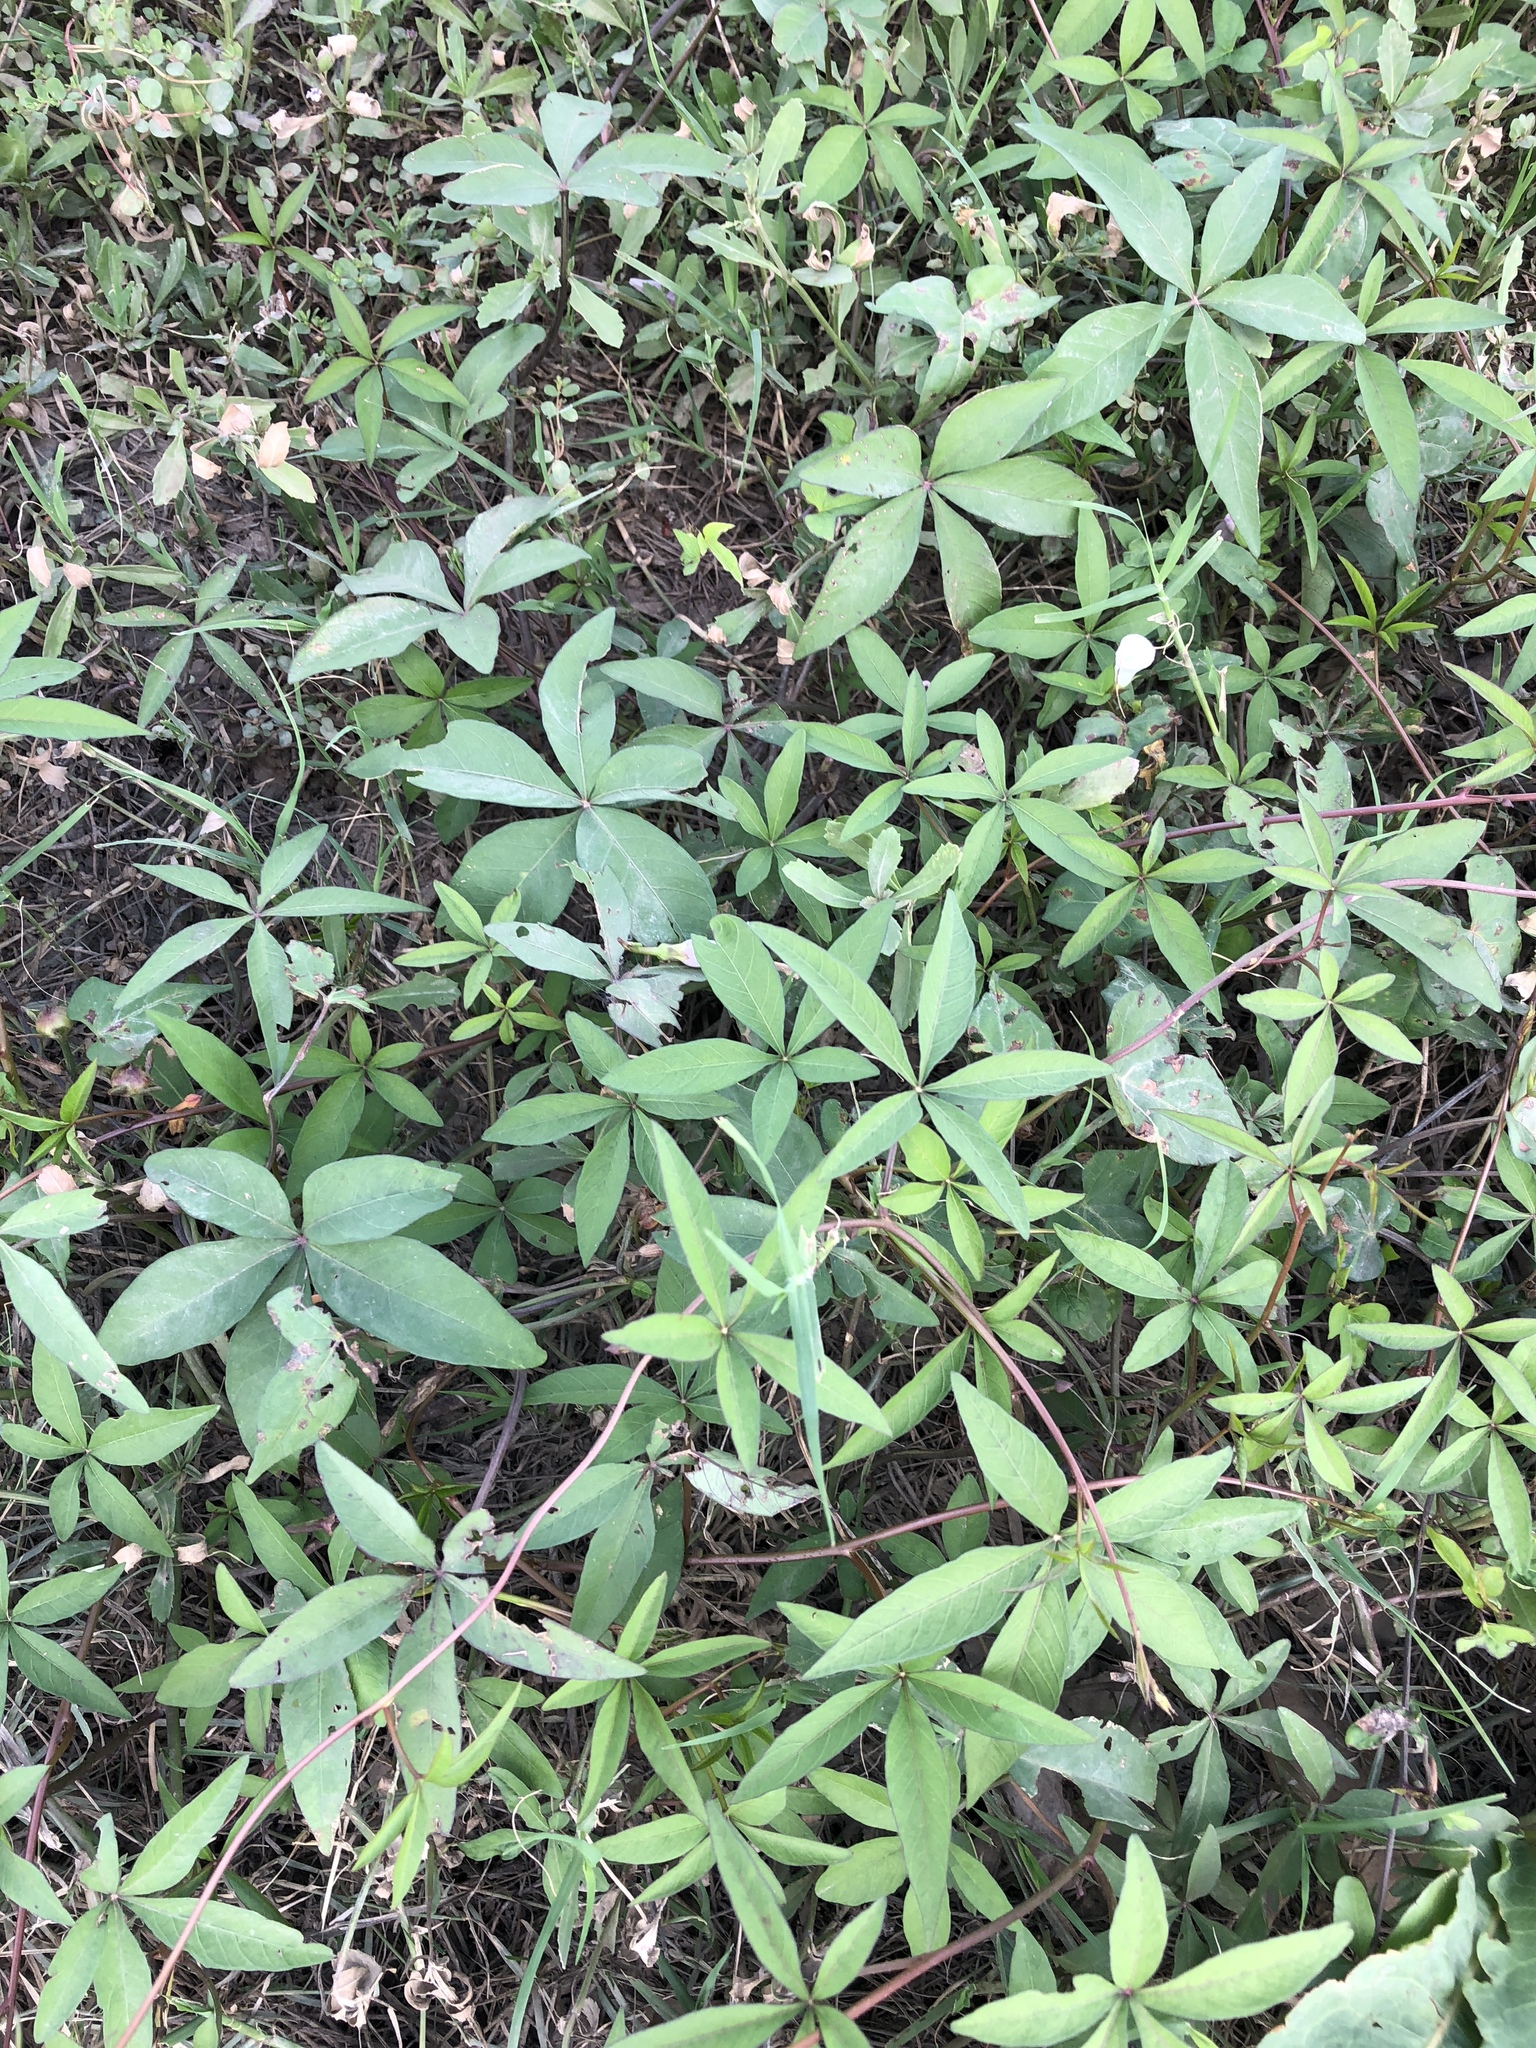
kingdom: Plantae
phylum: Tracheophyta
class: Magnoliopsida
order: Solanales
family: Convolvulaceae
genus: Ipomoea
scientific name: Ipomoea heptaphylla
